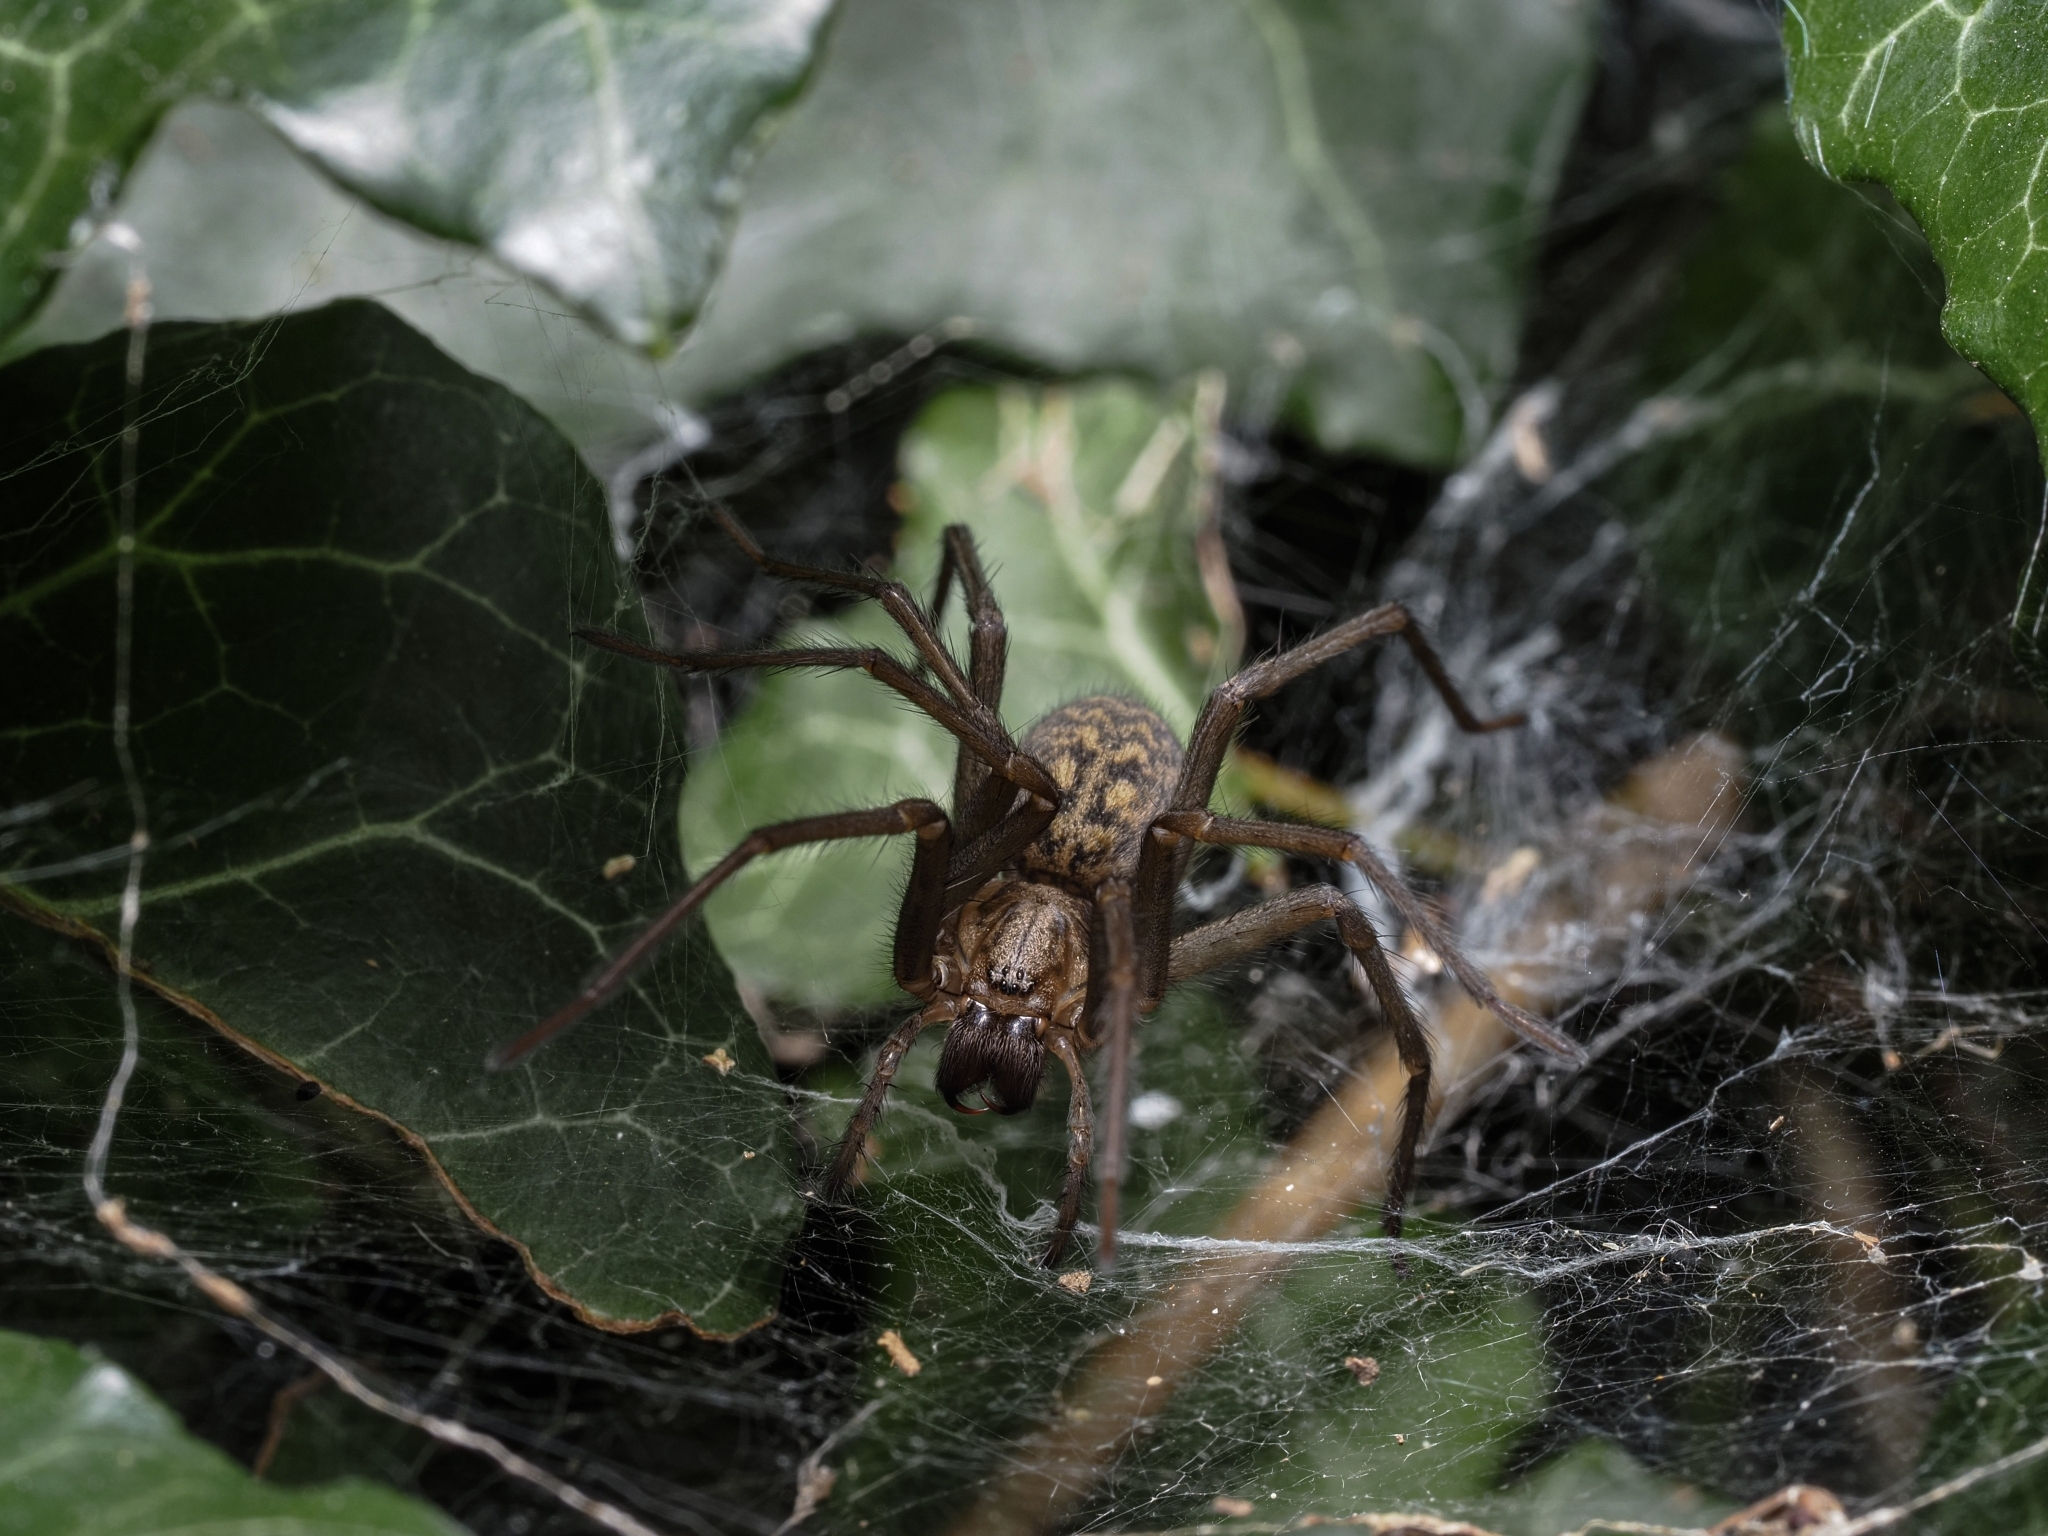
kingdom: Animalia
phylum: Arthropoda
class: Arachnida
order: Araneae
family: Agelenidae
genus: Eratigena
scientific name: Eratigena atrica
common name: Giant house spider
